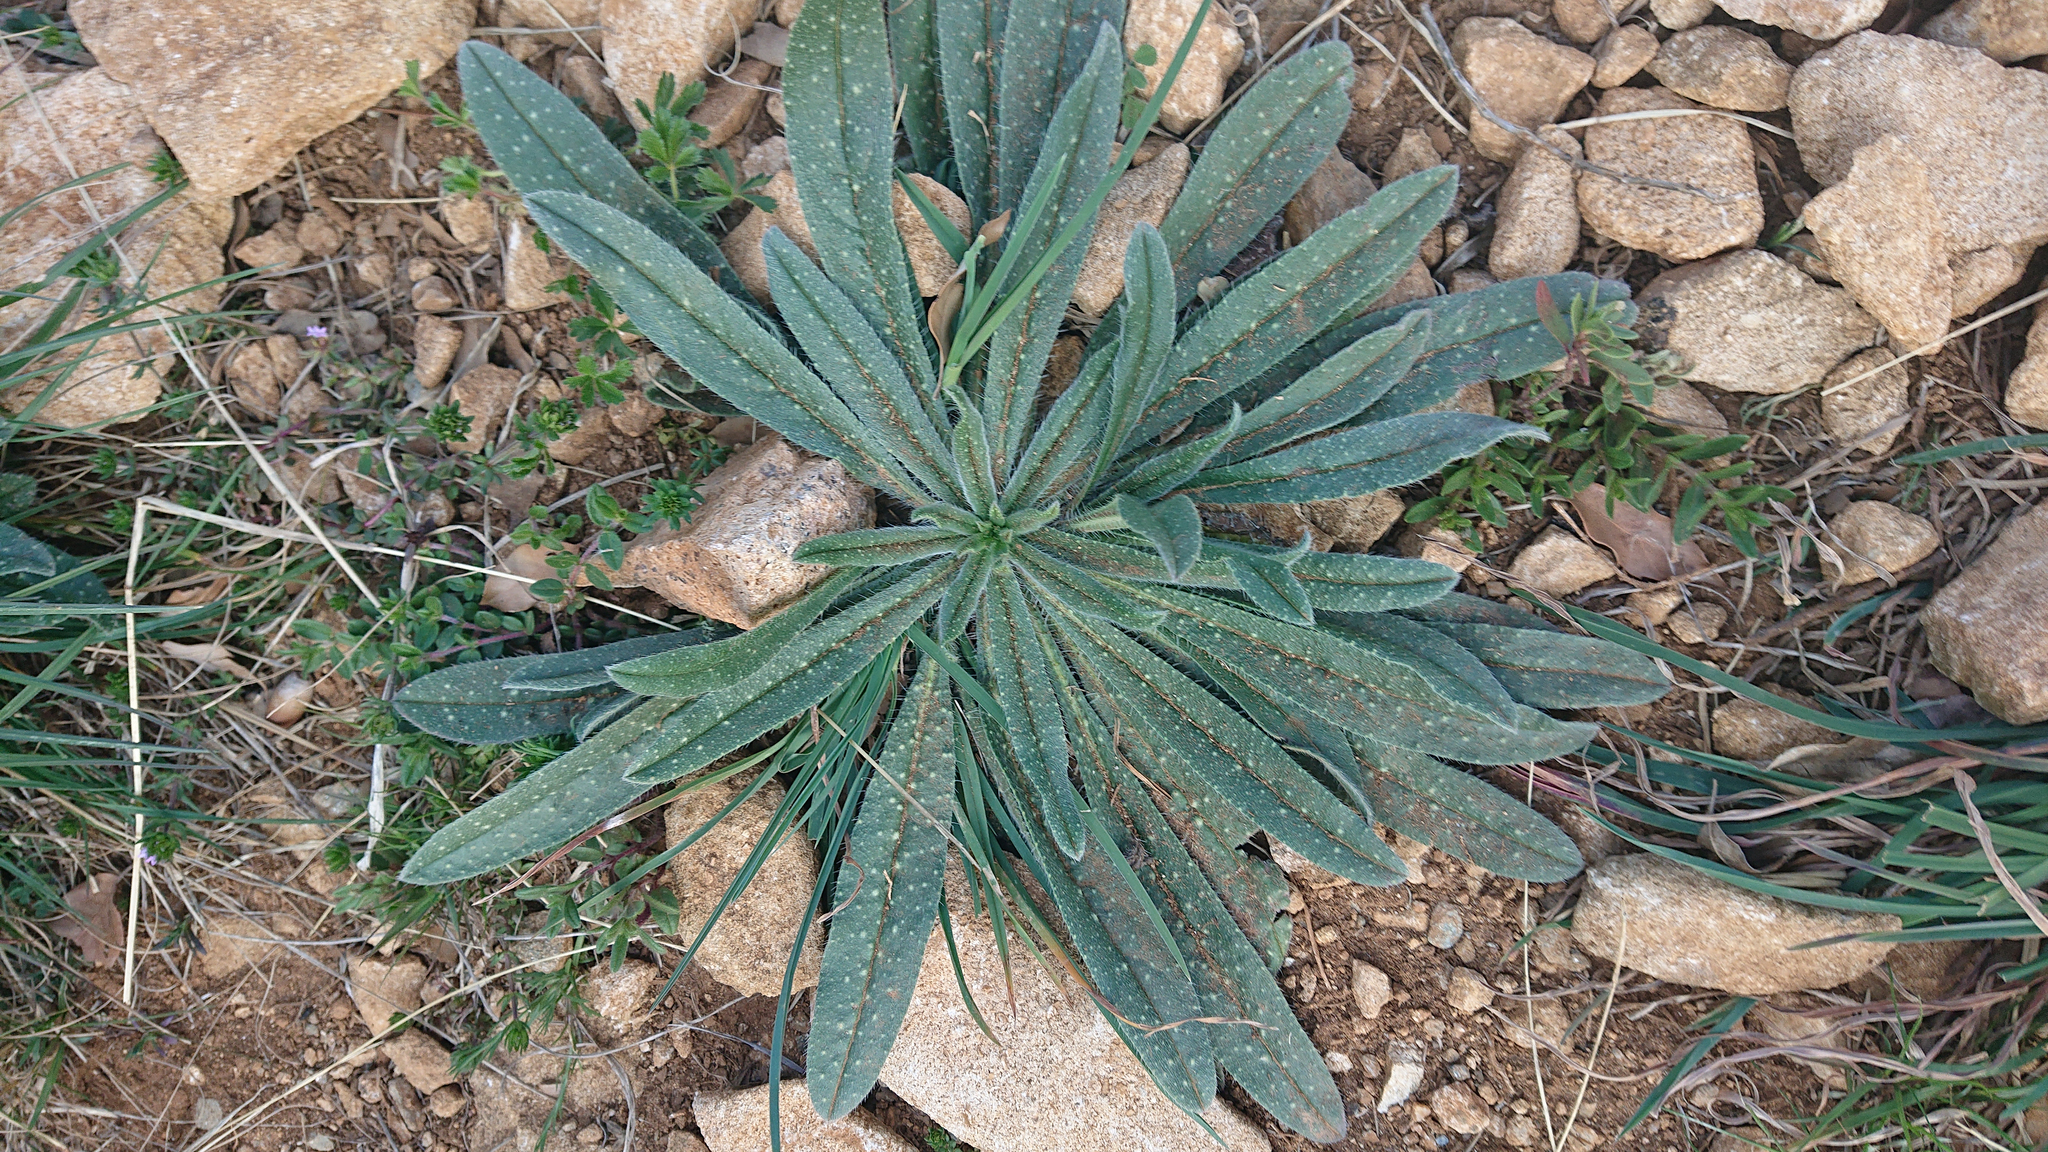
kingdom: Plantae
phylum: Tracheophyta
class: Magnoliopsida
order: Boraginales
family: Boraginaceae
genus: Echium
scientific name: Echium vulgare
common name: Common viper's bugloss
